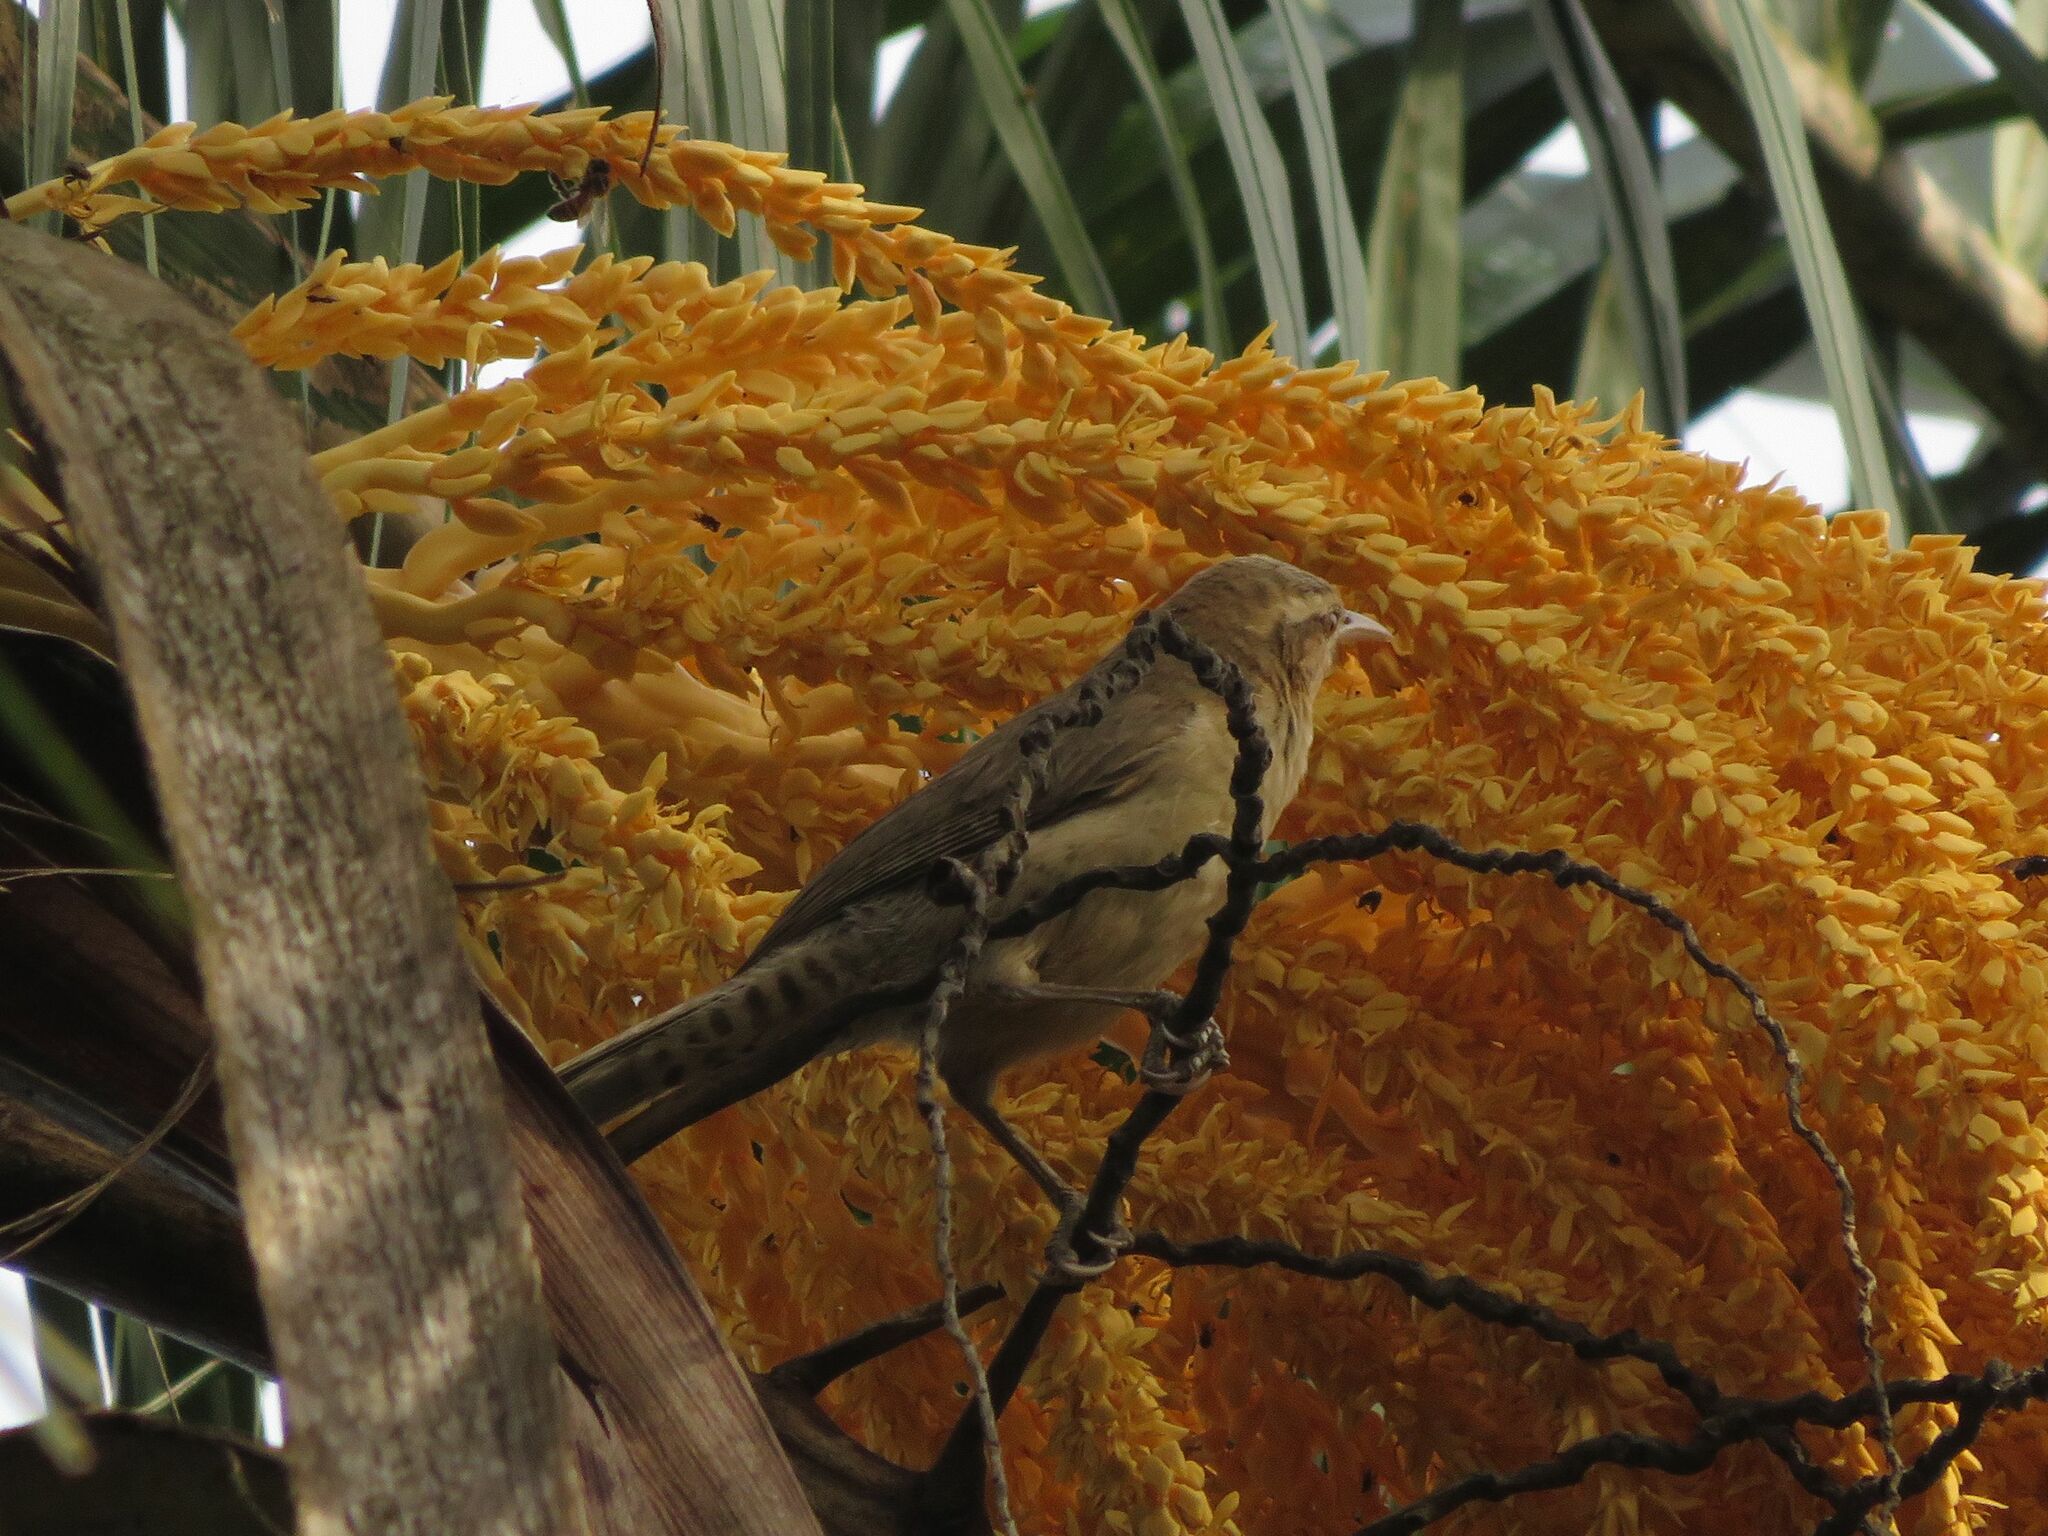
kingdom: Animalia
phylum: Chordata
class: Aves
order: Passeriformes
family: Troglodytidae
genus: Campylorhynchus
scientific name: Campylorhynchus turdinus
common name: Thrush-like wren
